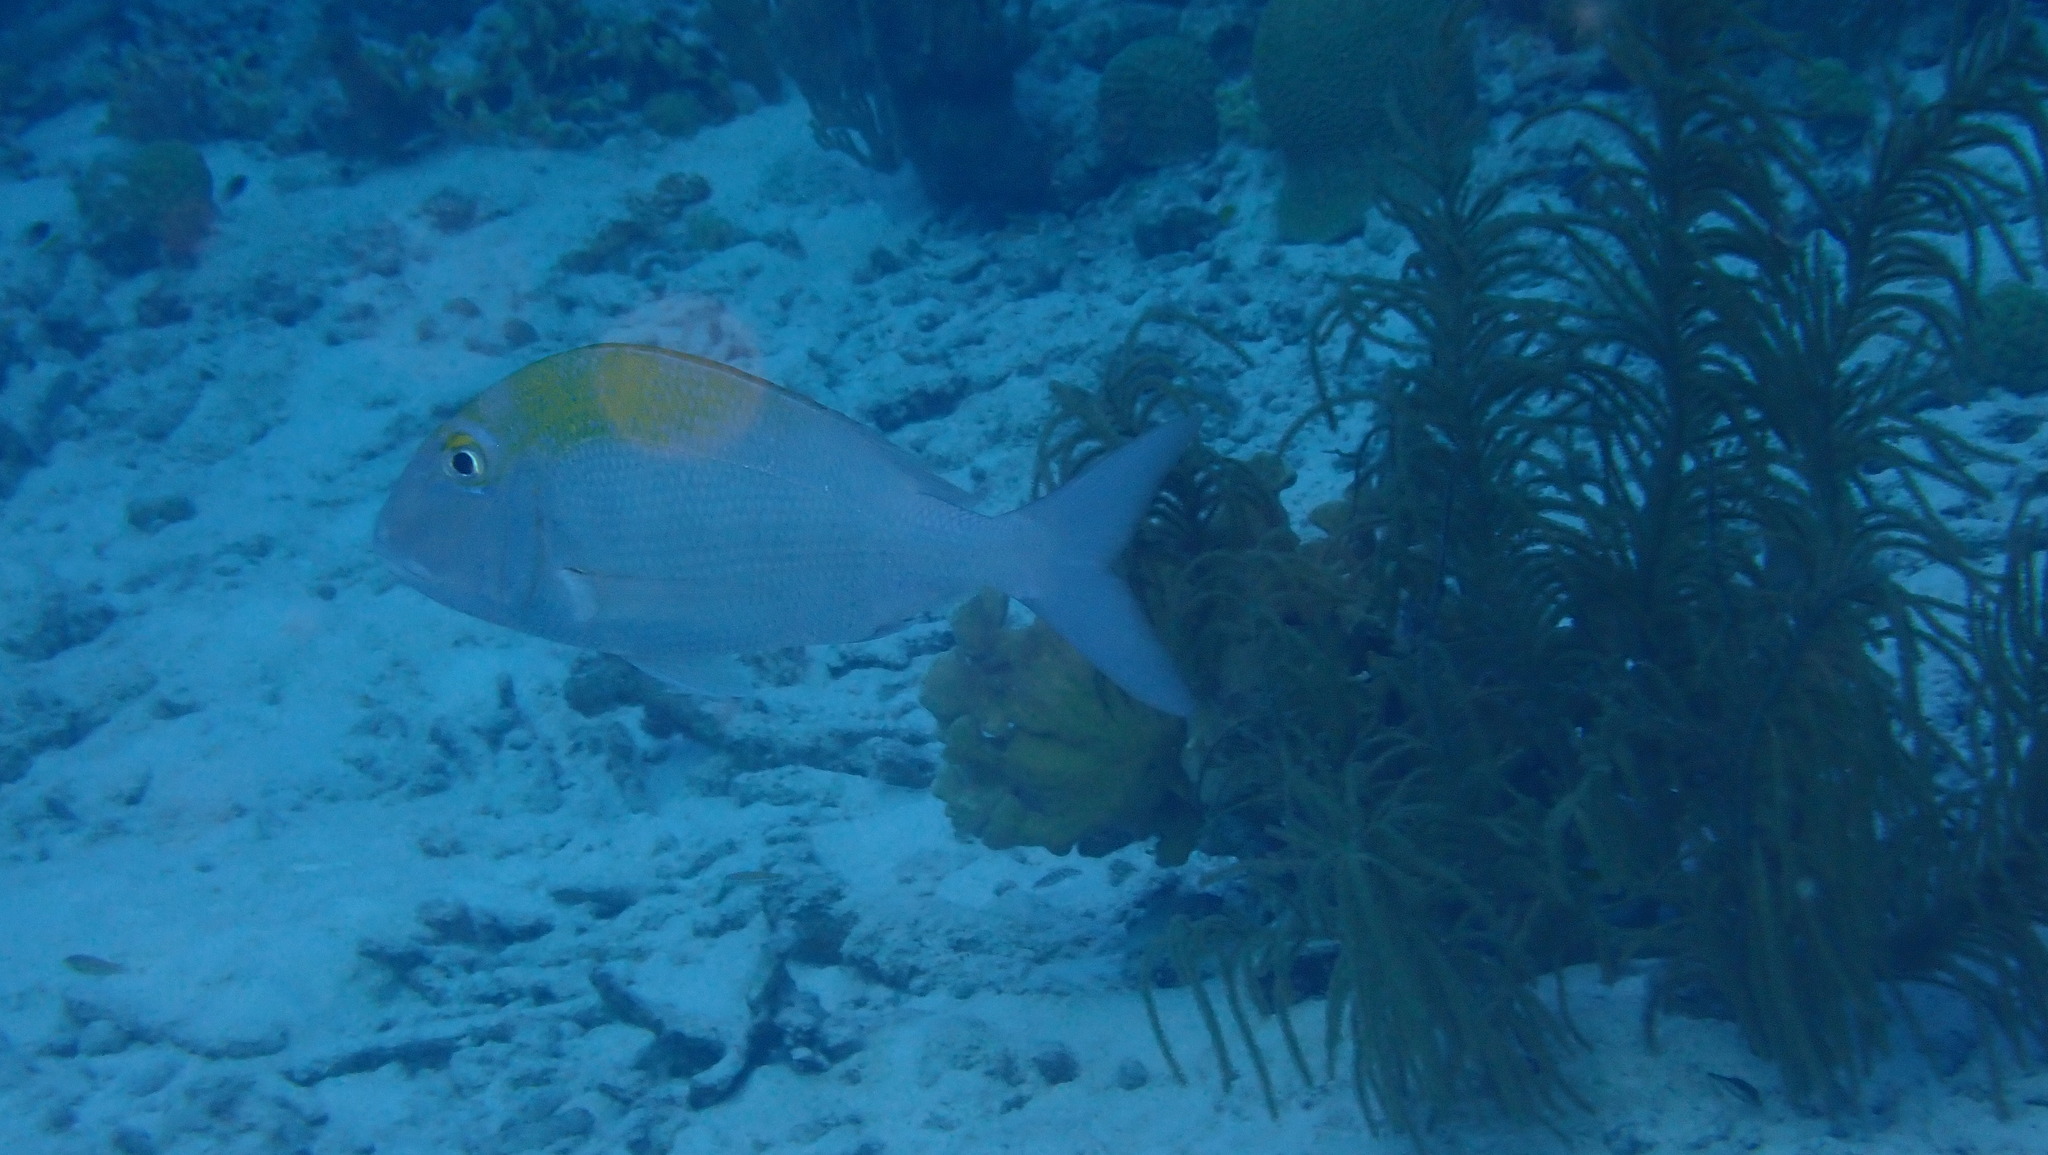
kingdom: Animalia
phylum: Chordata
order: Perciformes
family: Sparidae
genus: Calamus
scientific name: Calamus calamus
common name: Saucereye porgy
